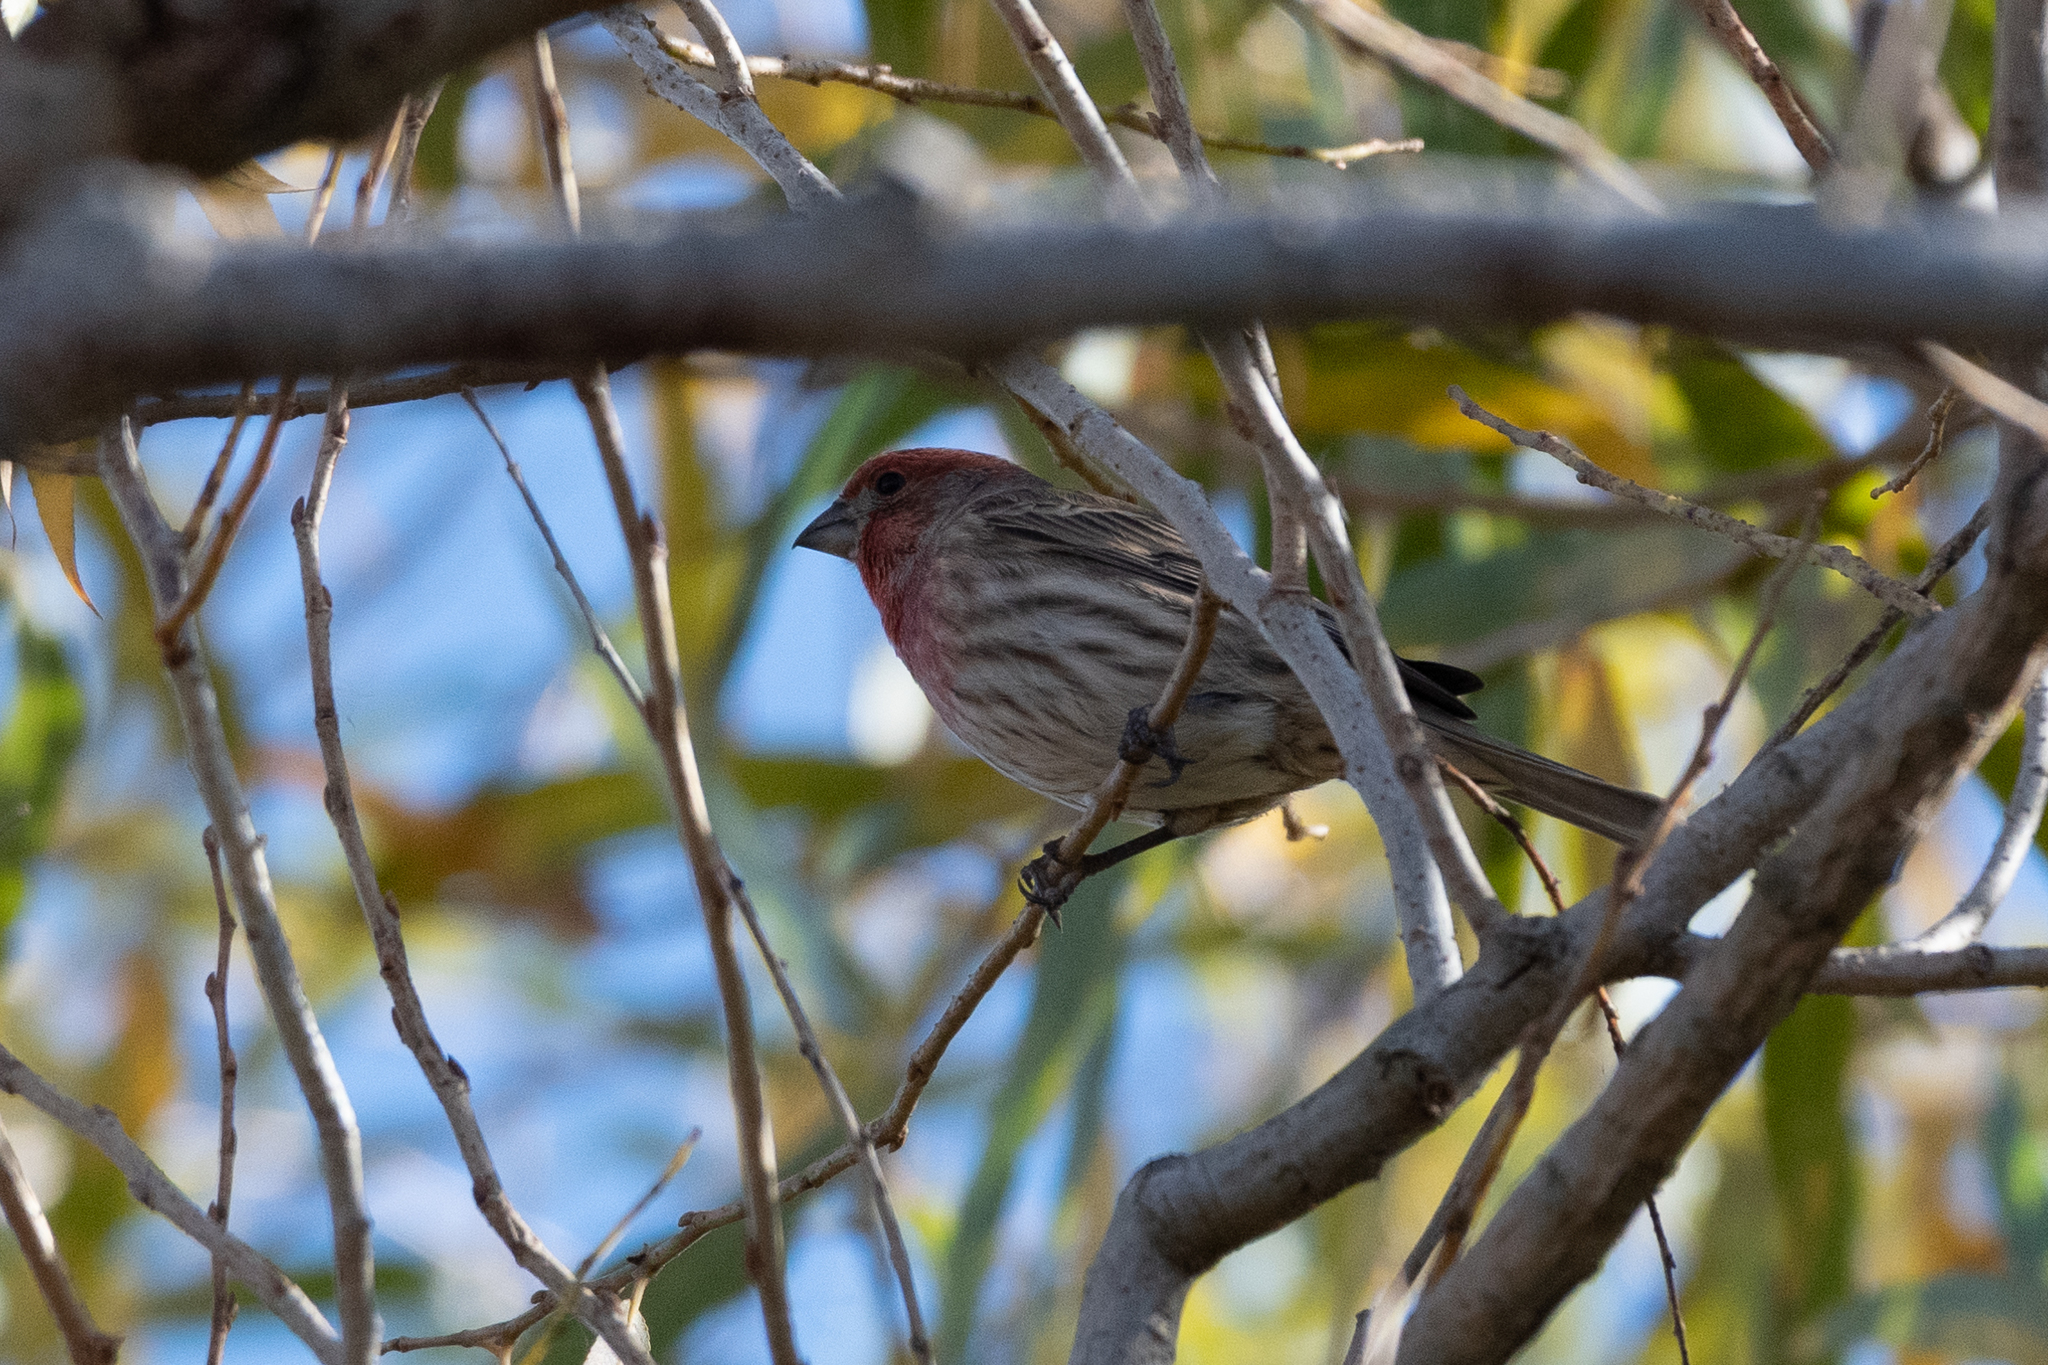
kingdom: Animalia
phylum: Chordata
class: Aves
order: Passeriformes
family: Fringillidae
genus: Haemorhous
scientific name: Haemorhous mexicanus
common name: House finch
